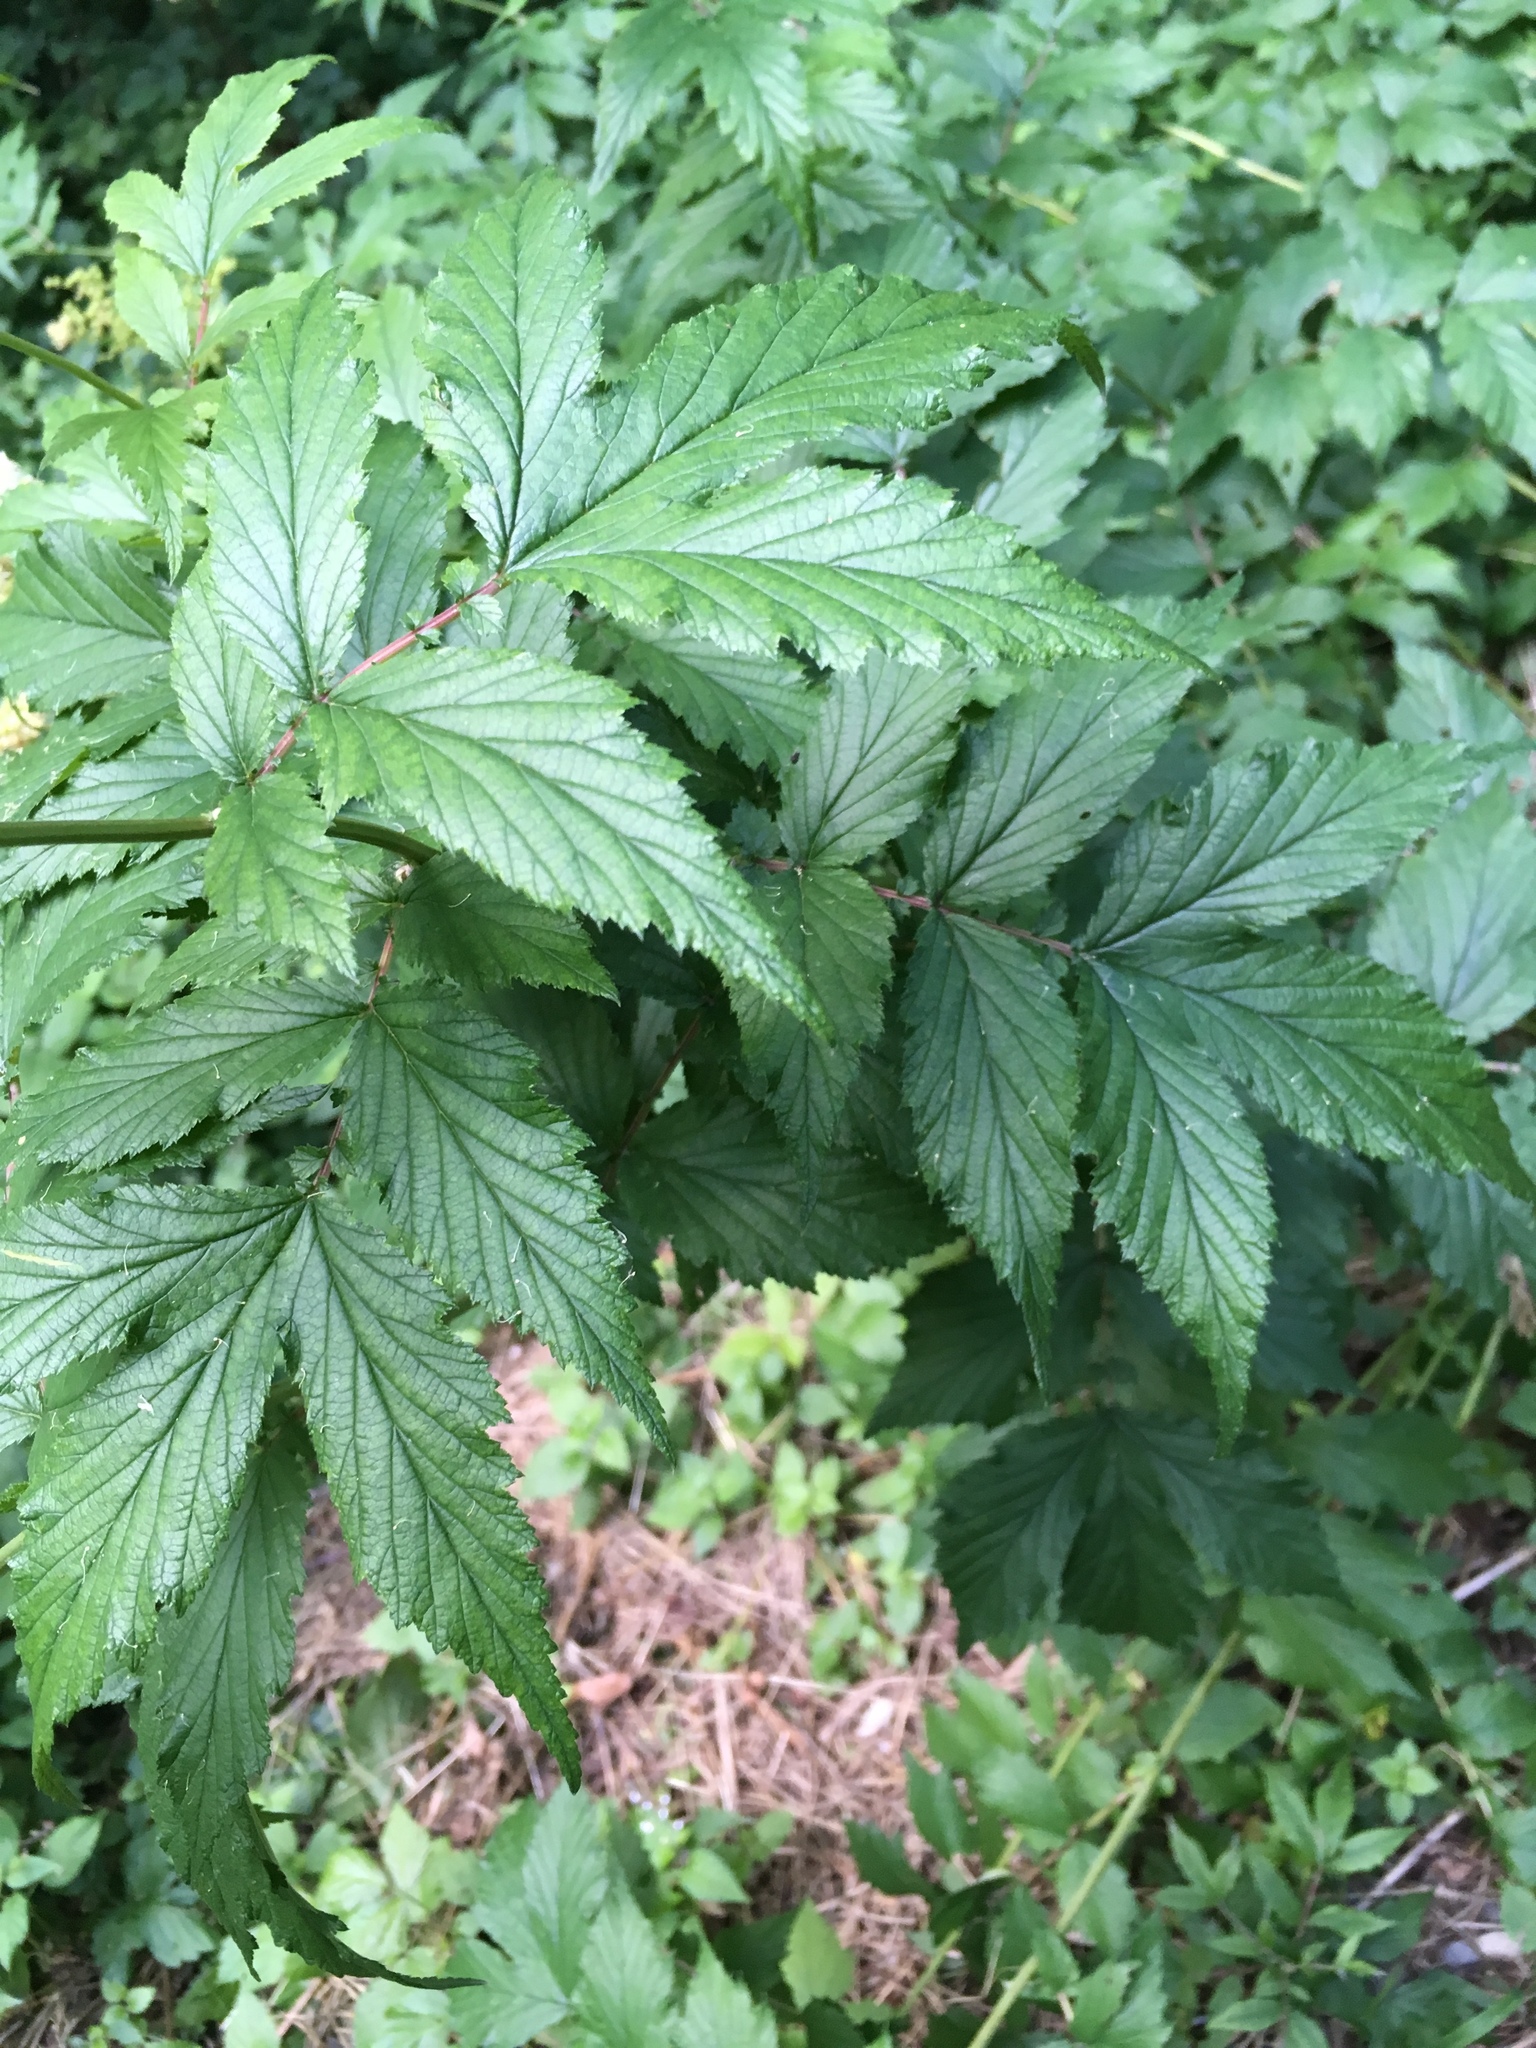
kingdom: Plantae
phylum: Tracheophyta
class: Magnoliopsida
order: Rosales
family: Rosaceae
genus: Filipendula
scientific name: Filipendula ulmaria
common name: Meadowsweet
